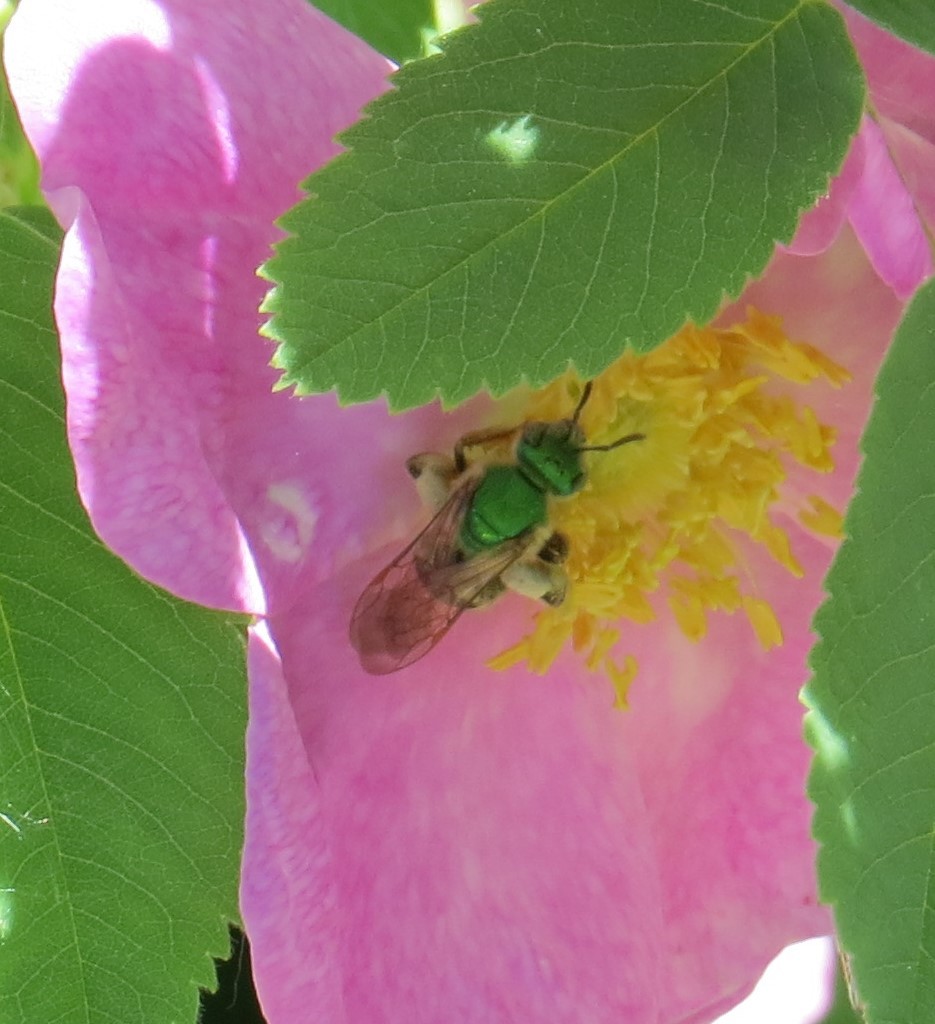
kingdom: Animalia
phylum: Arthropoda
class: Insecta
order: Hymenoptera
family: Halictidae
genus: Agapostemon
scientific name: Agapostemon virescens
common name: Bicolored striped sweat bee
